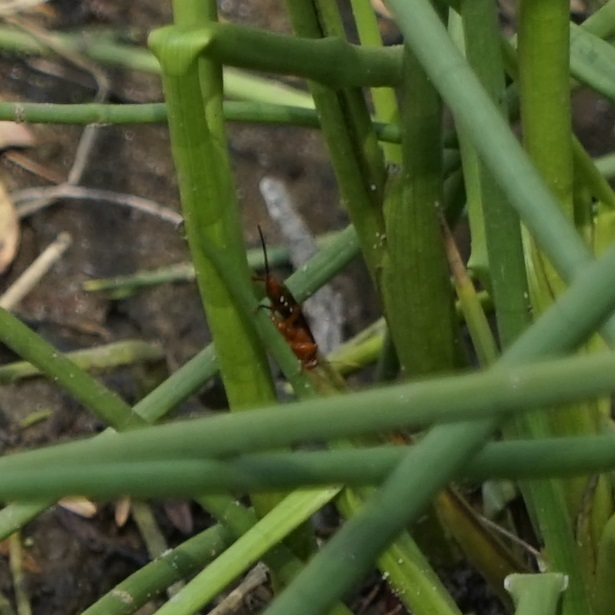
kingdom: Animalia
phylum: Arthropoda
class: Insecta
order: Hymenoptera
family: Ichneumonidae
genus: Lissopimpla
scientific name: Lissopimpla excelsa
